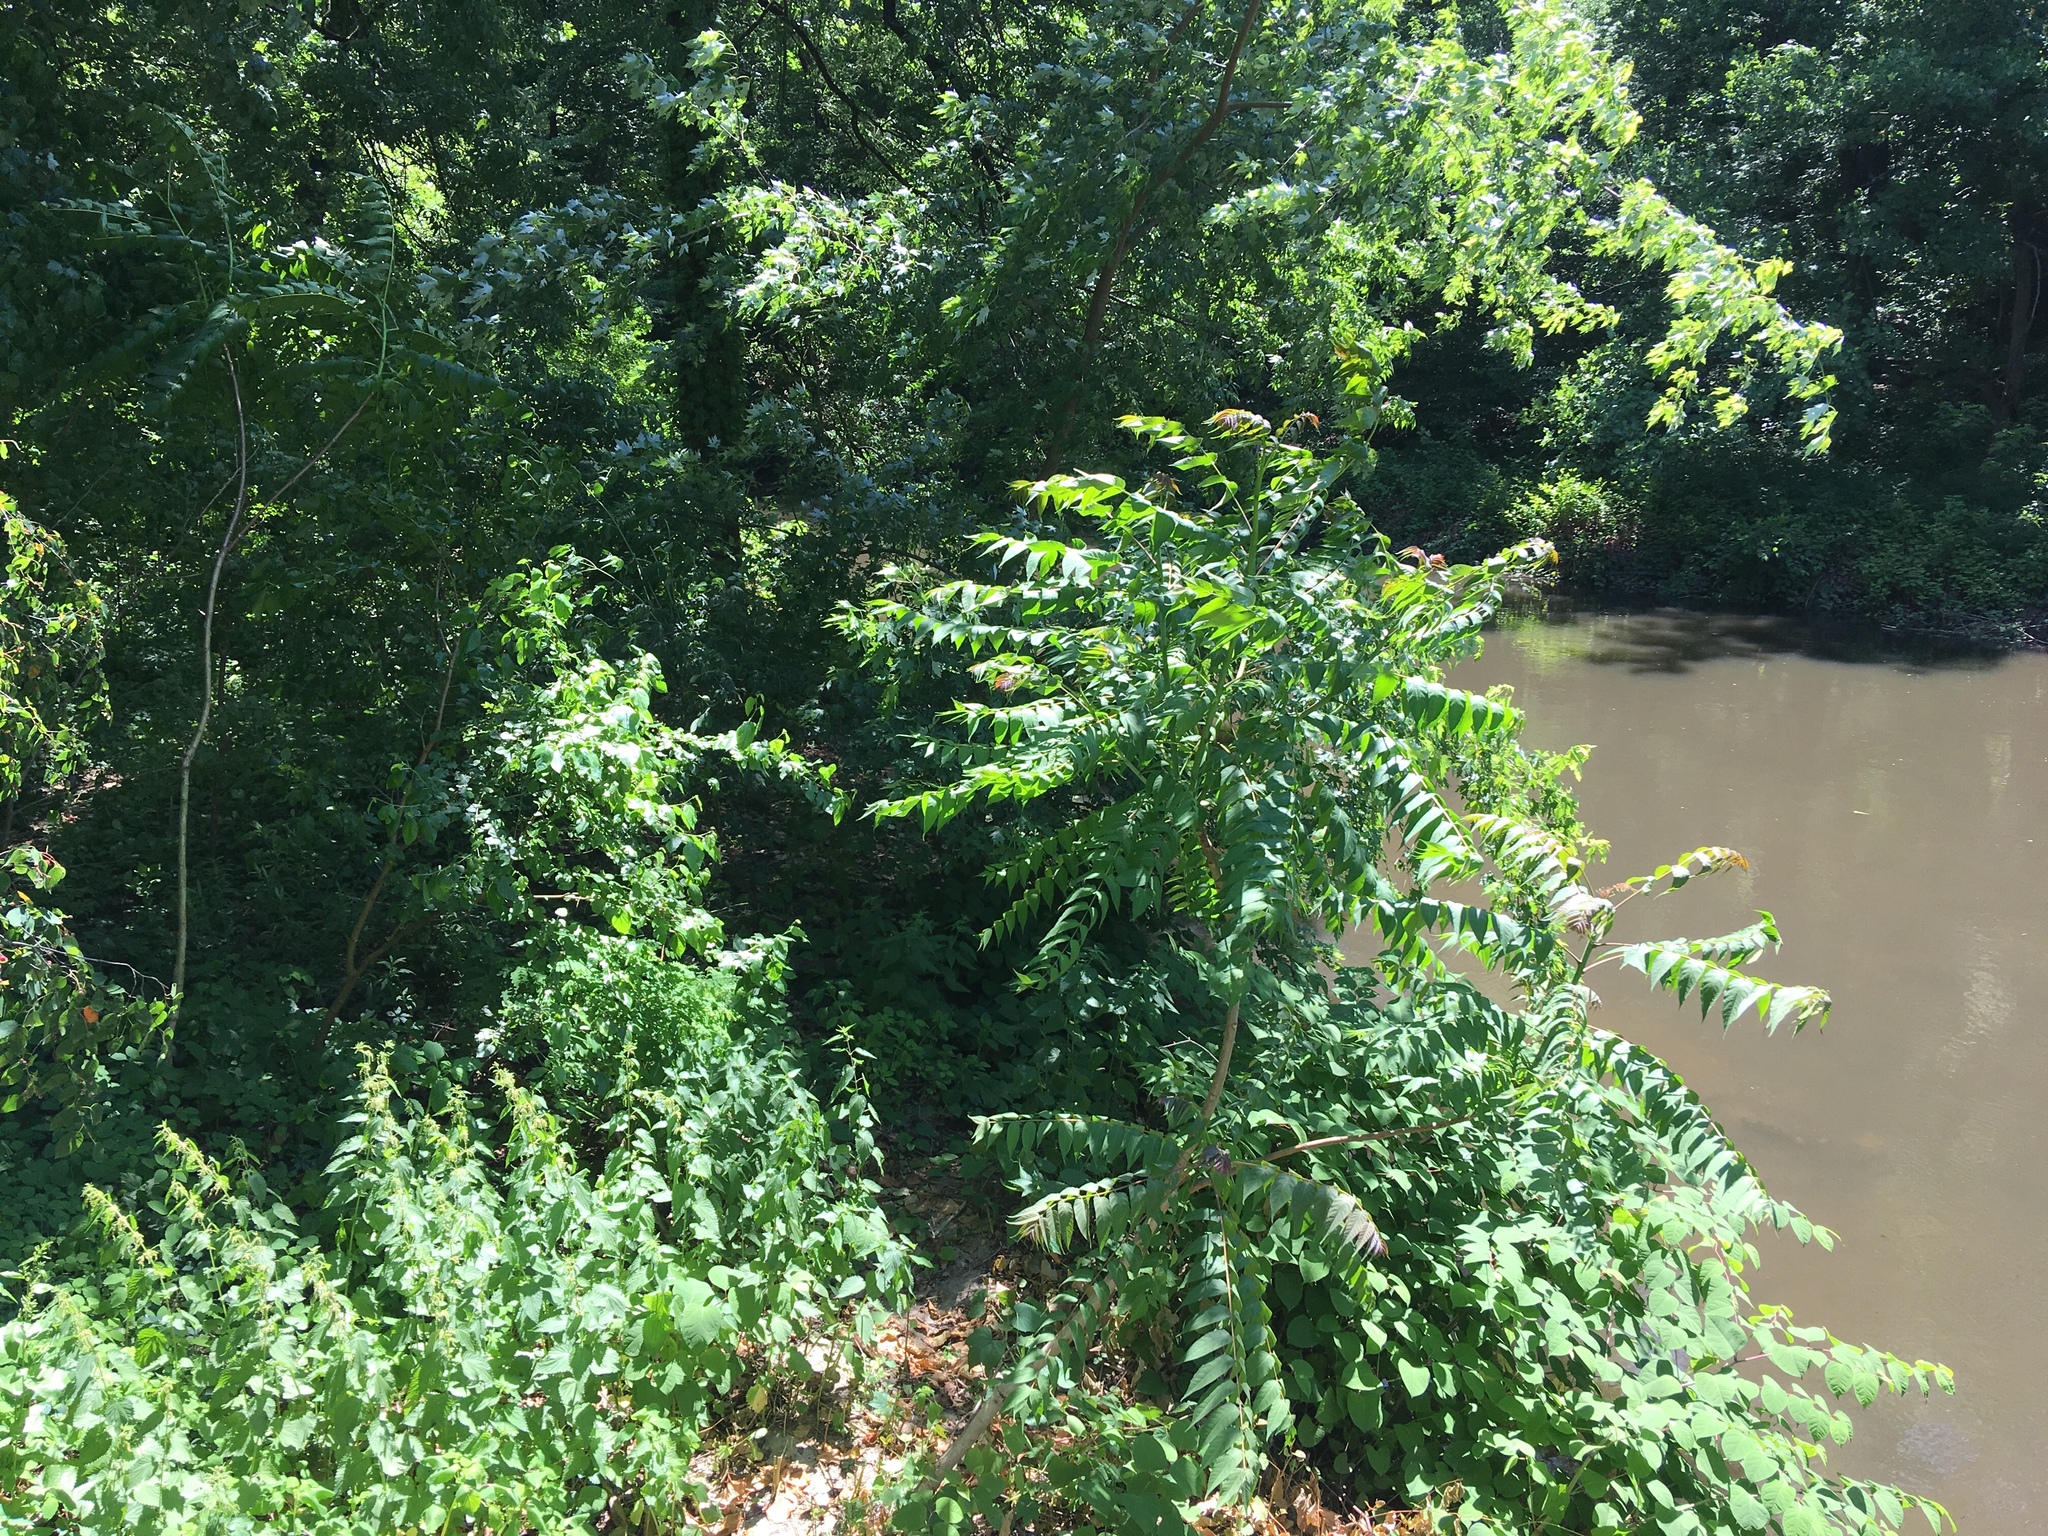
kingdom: Plantae
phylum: Tracheophyta
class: Magnoliopsida
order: Sapindales
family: Simaroubaceae
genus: Ailanthus
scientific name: Ailanthus altissima
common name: Tree-of-heaven
